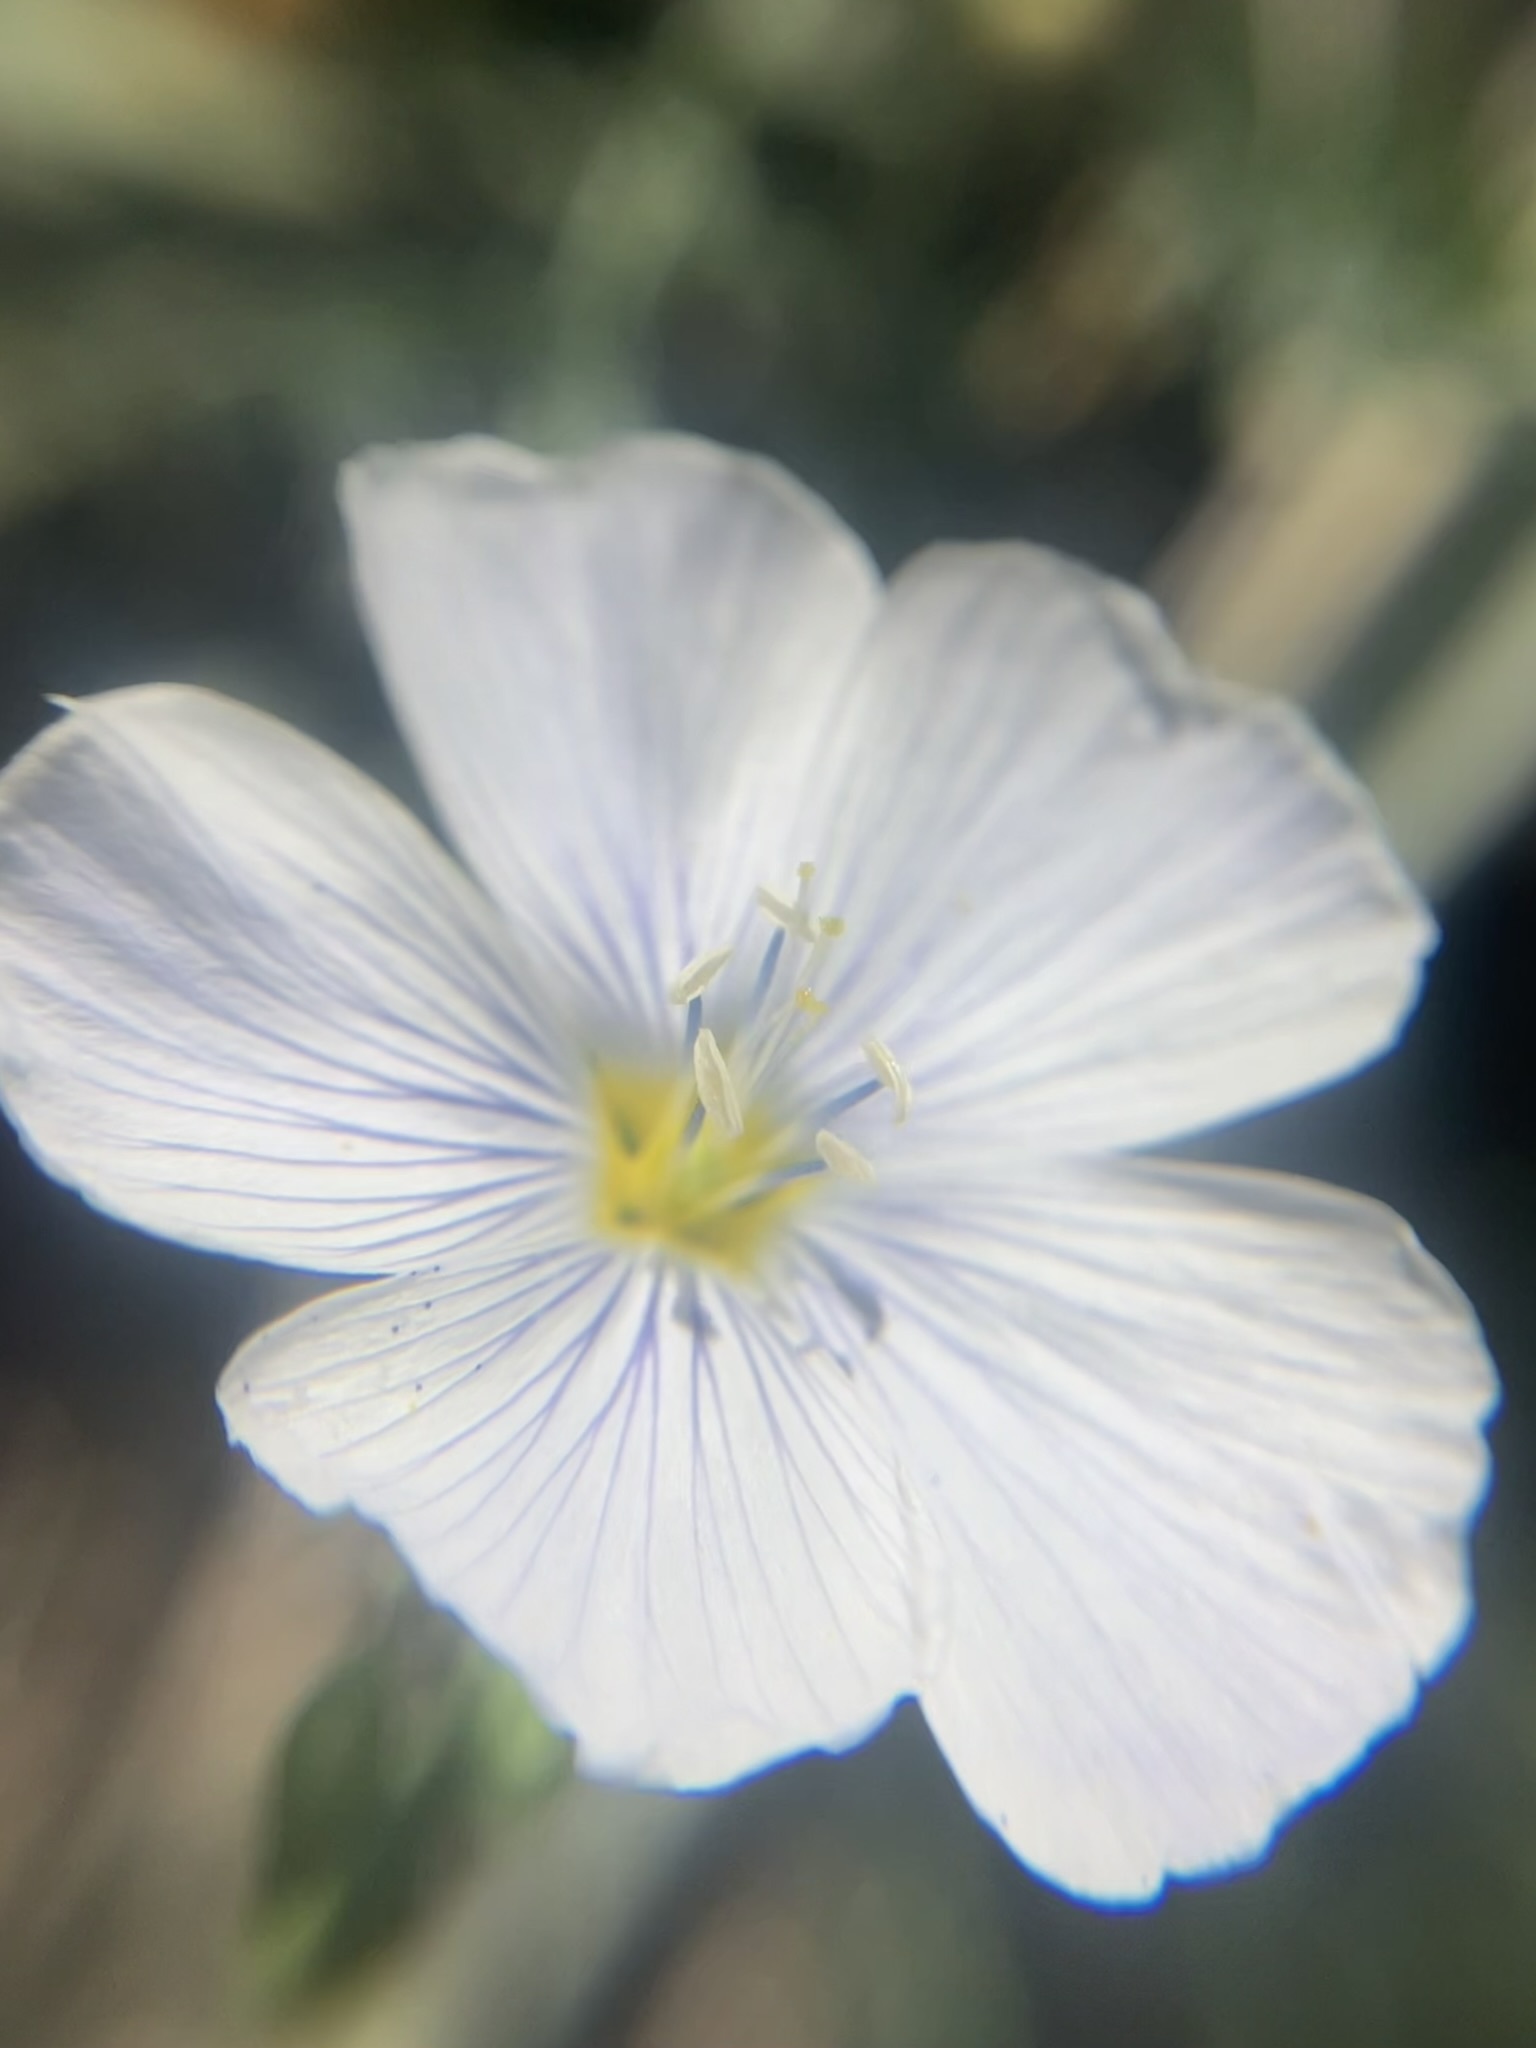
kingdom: Plantae
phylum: Tracheophyta
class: Magnoliopsida
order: Malpighiales
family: Linaceae
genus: Linum
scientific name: Linum lewisii
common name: Prairie flax
